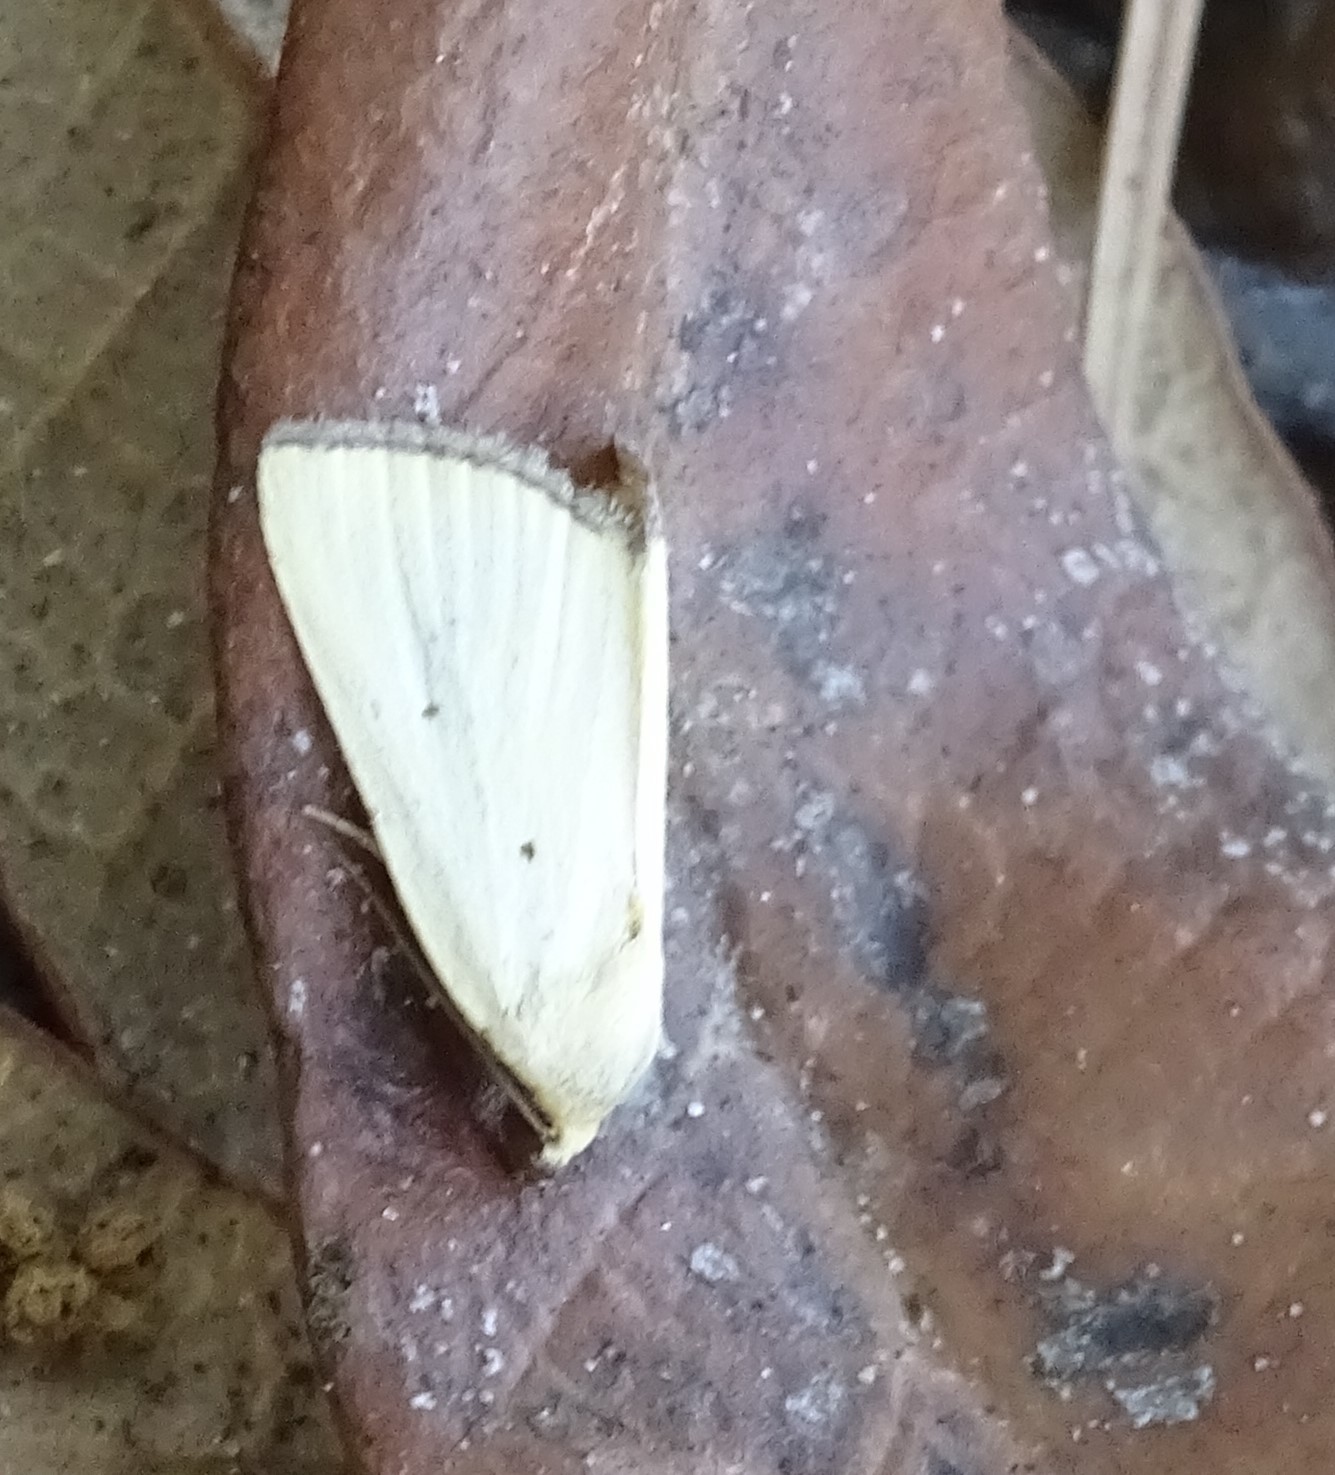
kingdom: Animalia
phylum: Arthropoda
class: Insecta
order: Lepidoptera
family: Noctuidae
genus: Marimatha
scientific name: Marimatha nigrofimbria
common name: Black-bordered lemon moth
